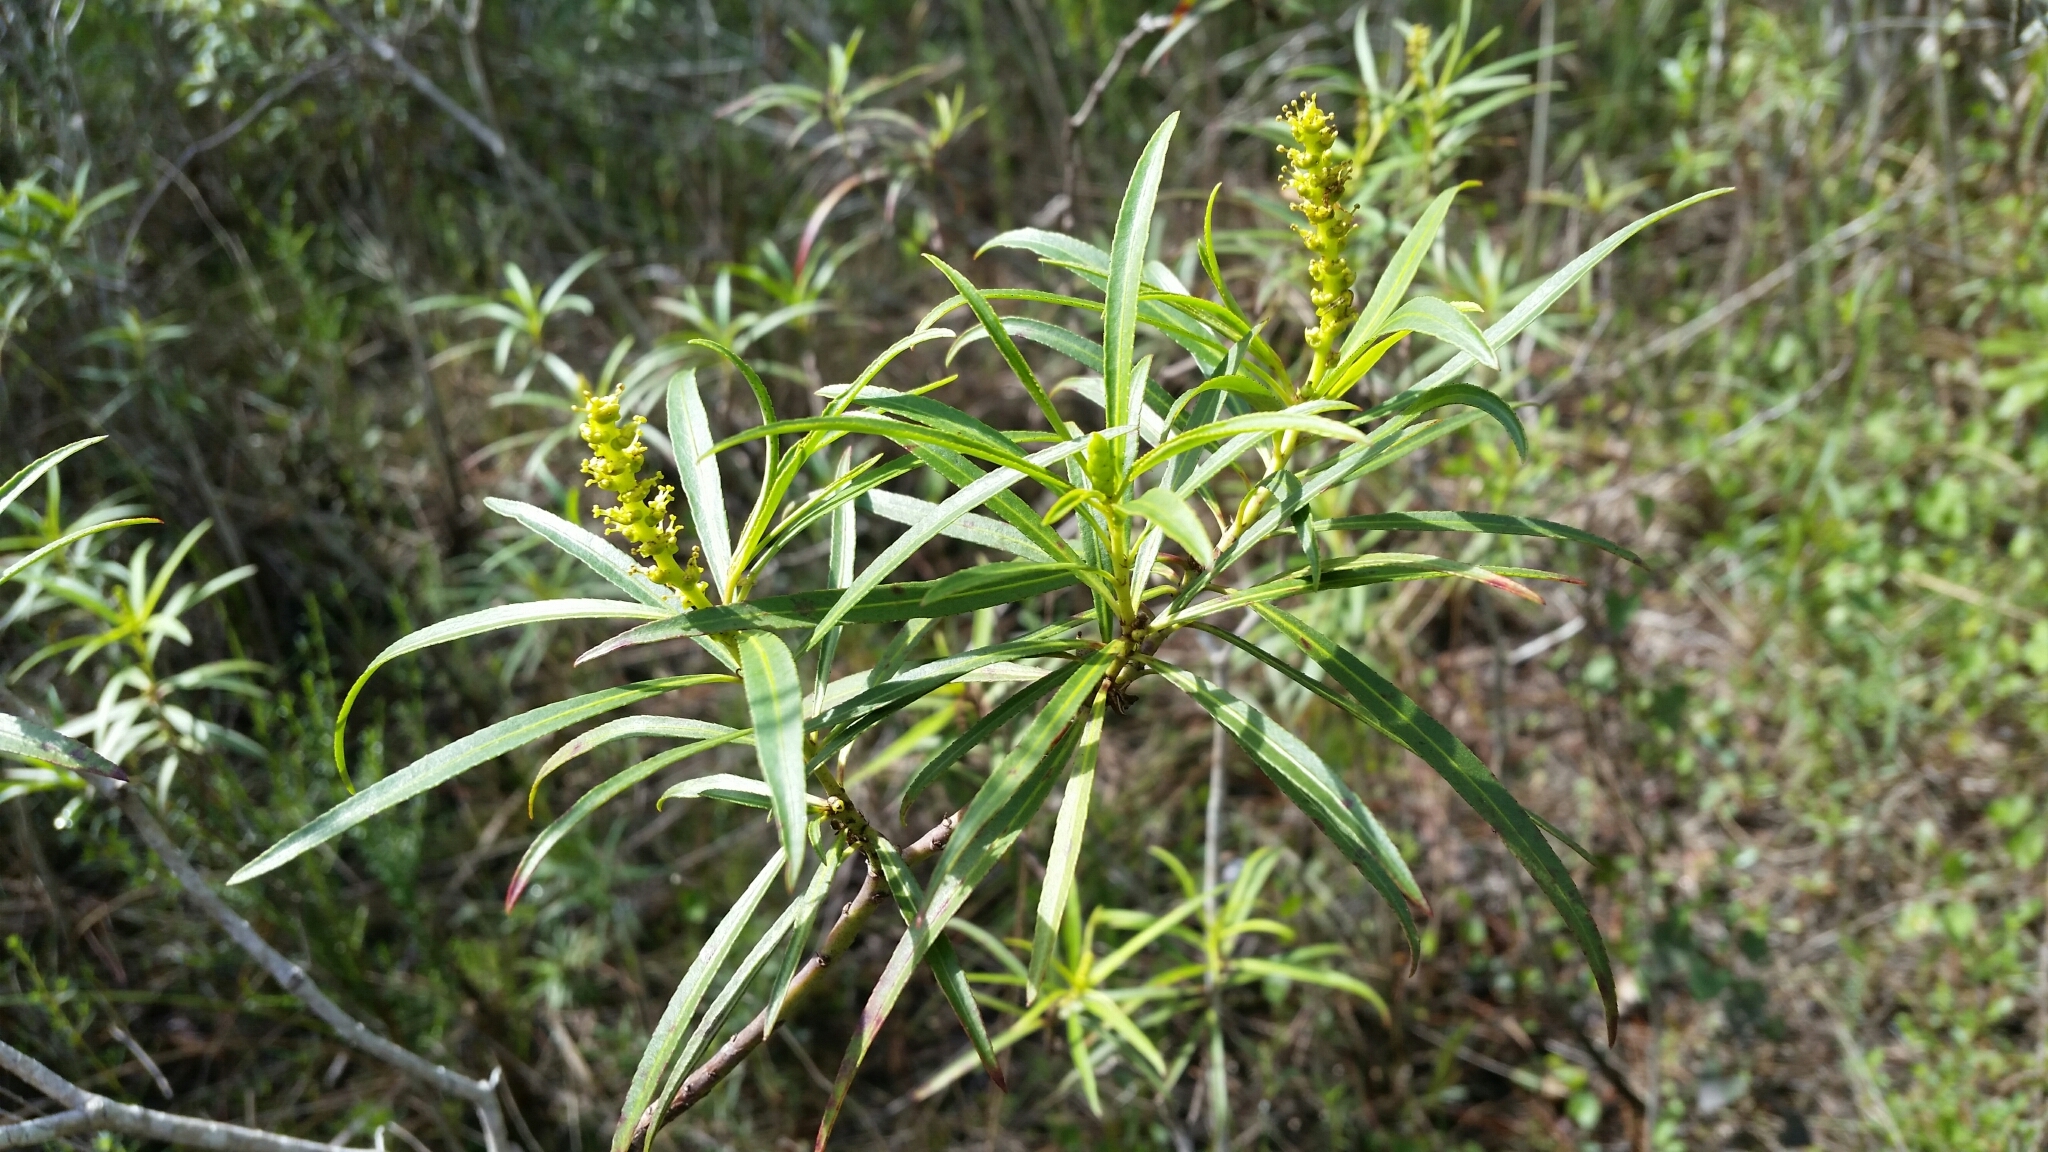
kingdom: Plantae
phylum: Tracheophyta
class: Magnoliopsida
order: Malpighiales
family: Euphorbiaceae
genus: Stillingia
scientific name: Stillingia aquatica
